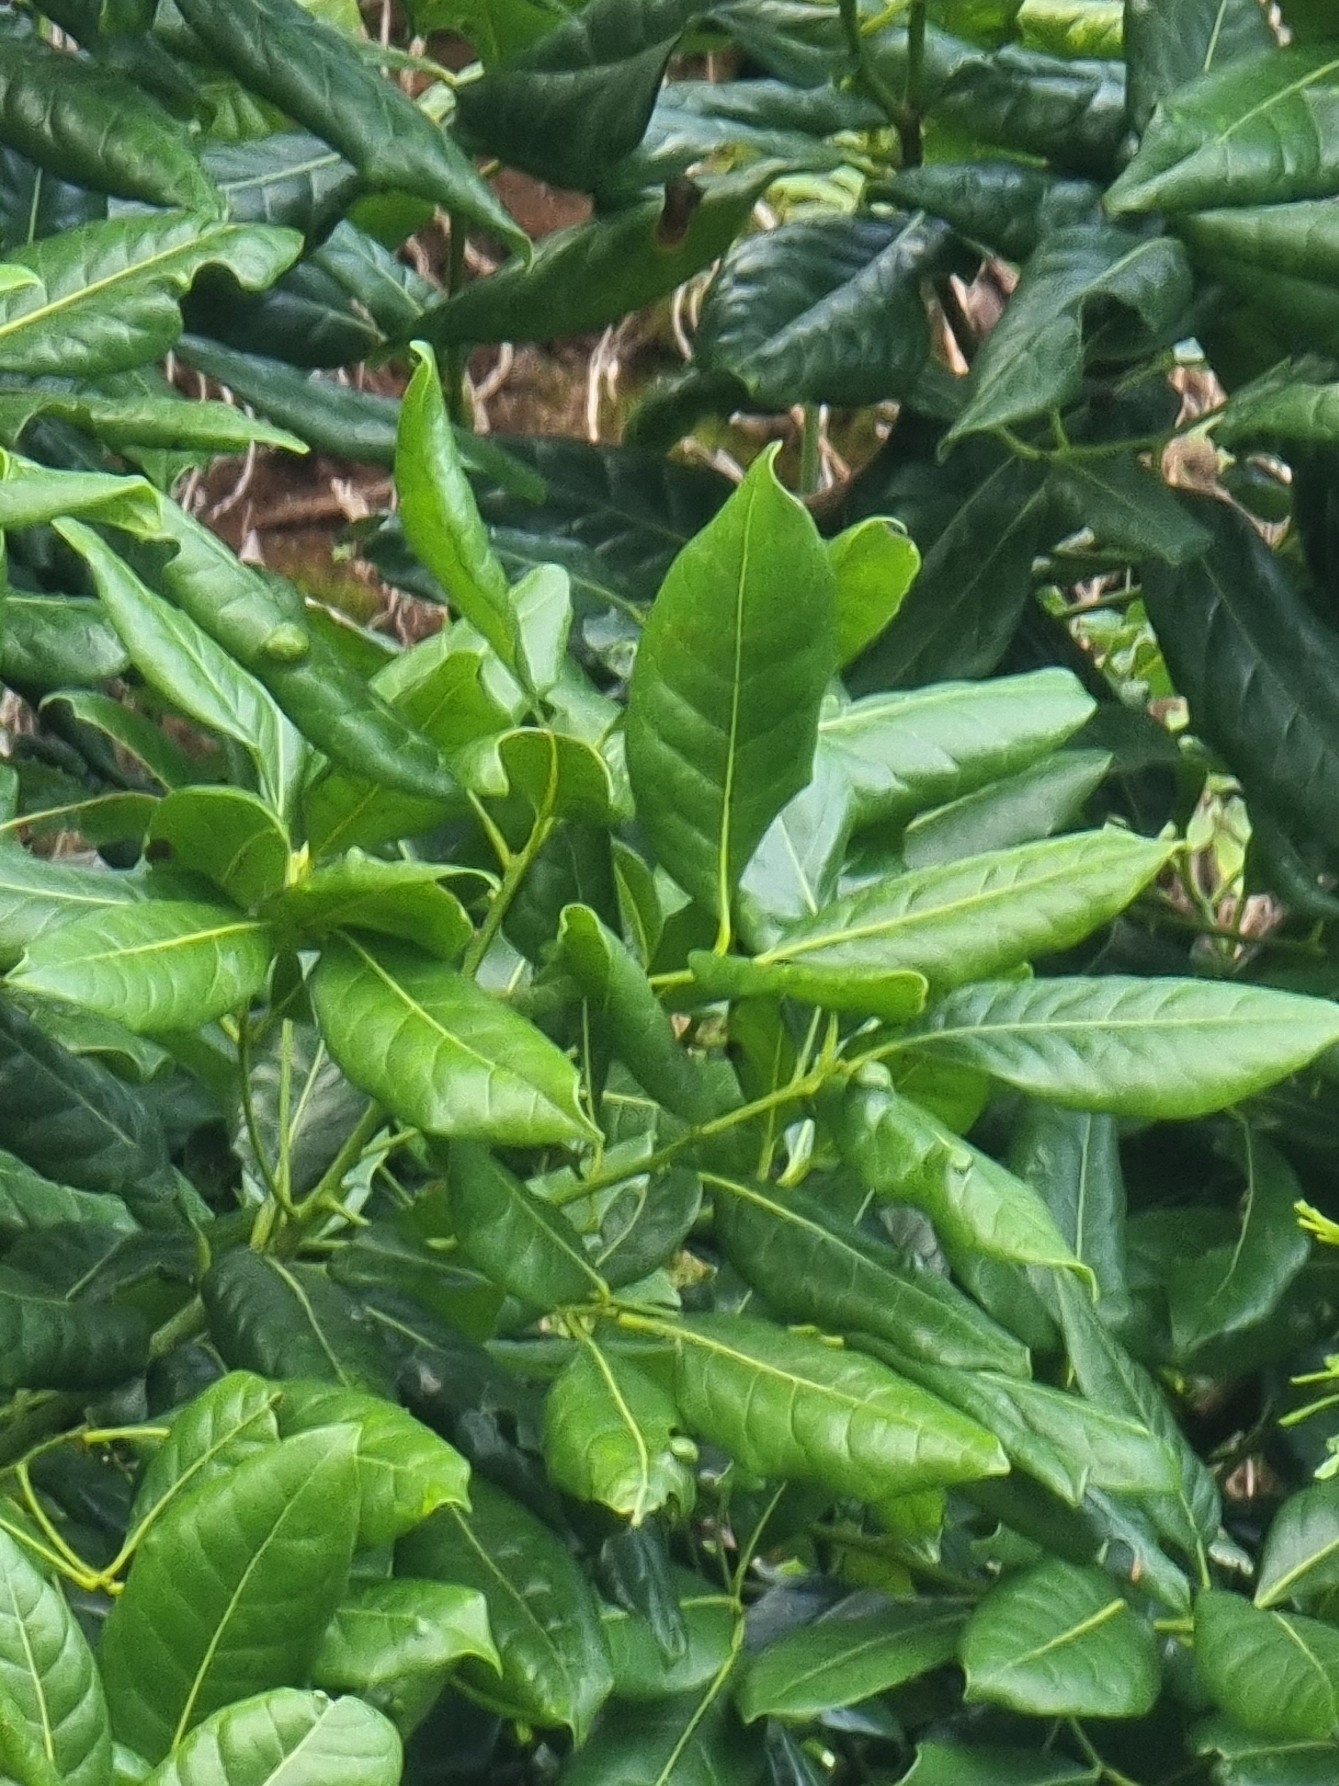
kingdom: Plantae
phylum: Tracheophyta
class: Magnoliopsida
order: Laurales
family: Lauraceae
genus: Apollonias
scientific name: Apollonias barbujana
